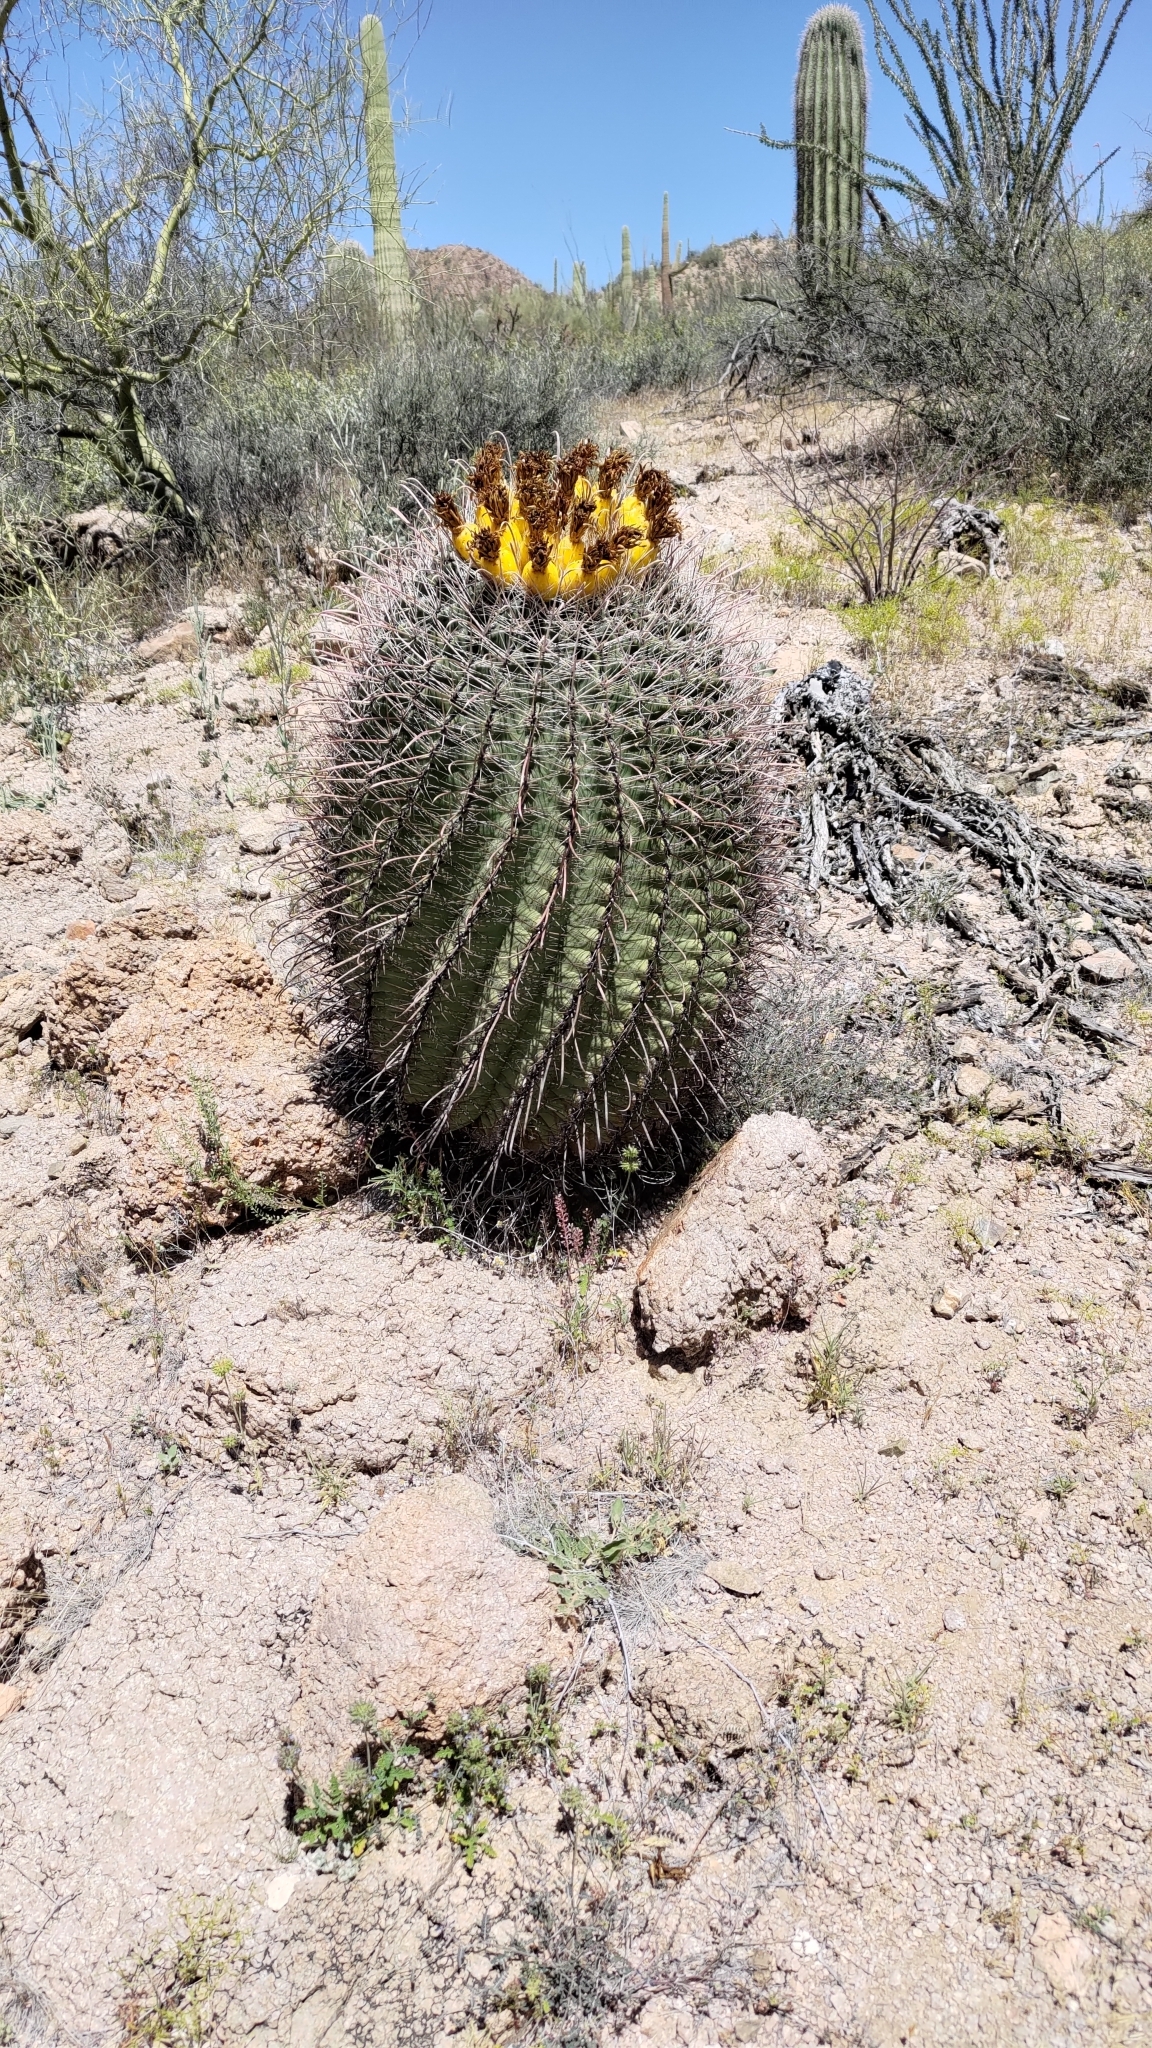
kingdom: Plantae
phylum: Tracheophyta
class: Magnoliopsida
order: Caryophyllales
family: Cactaceae
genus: Ferocactus
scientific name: Ferocactus wislizeni
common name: Candy barrel cactus
